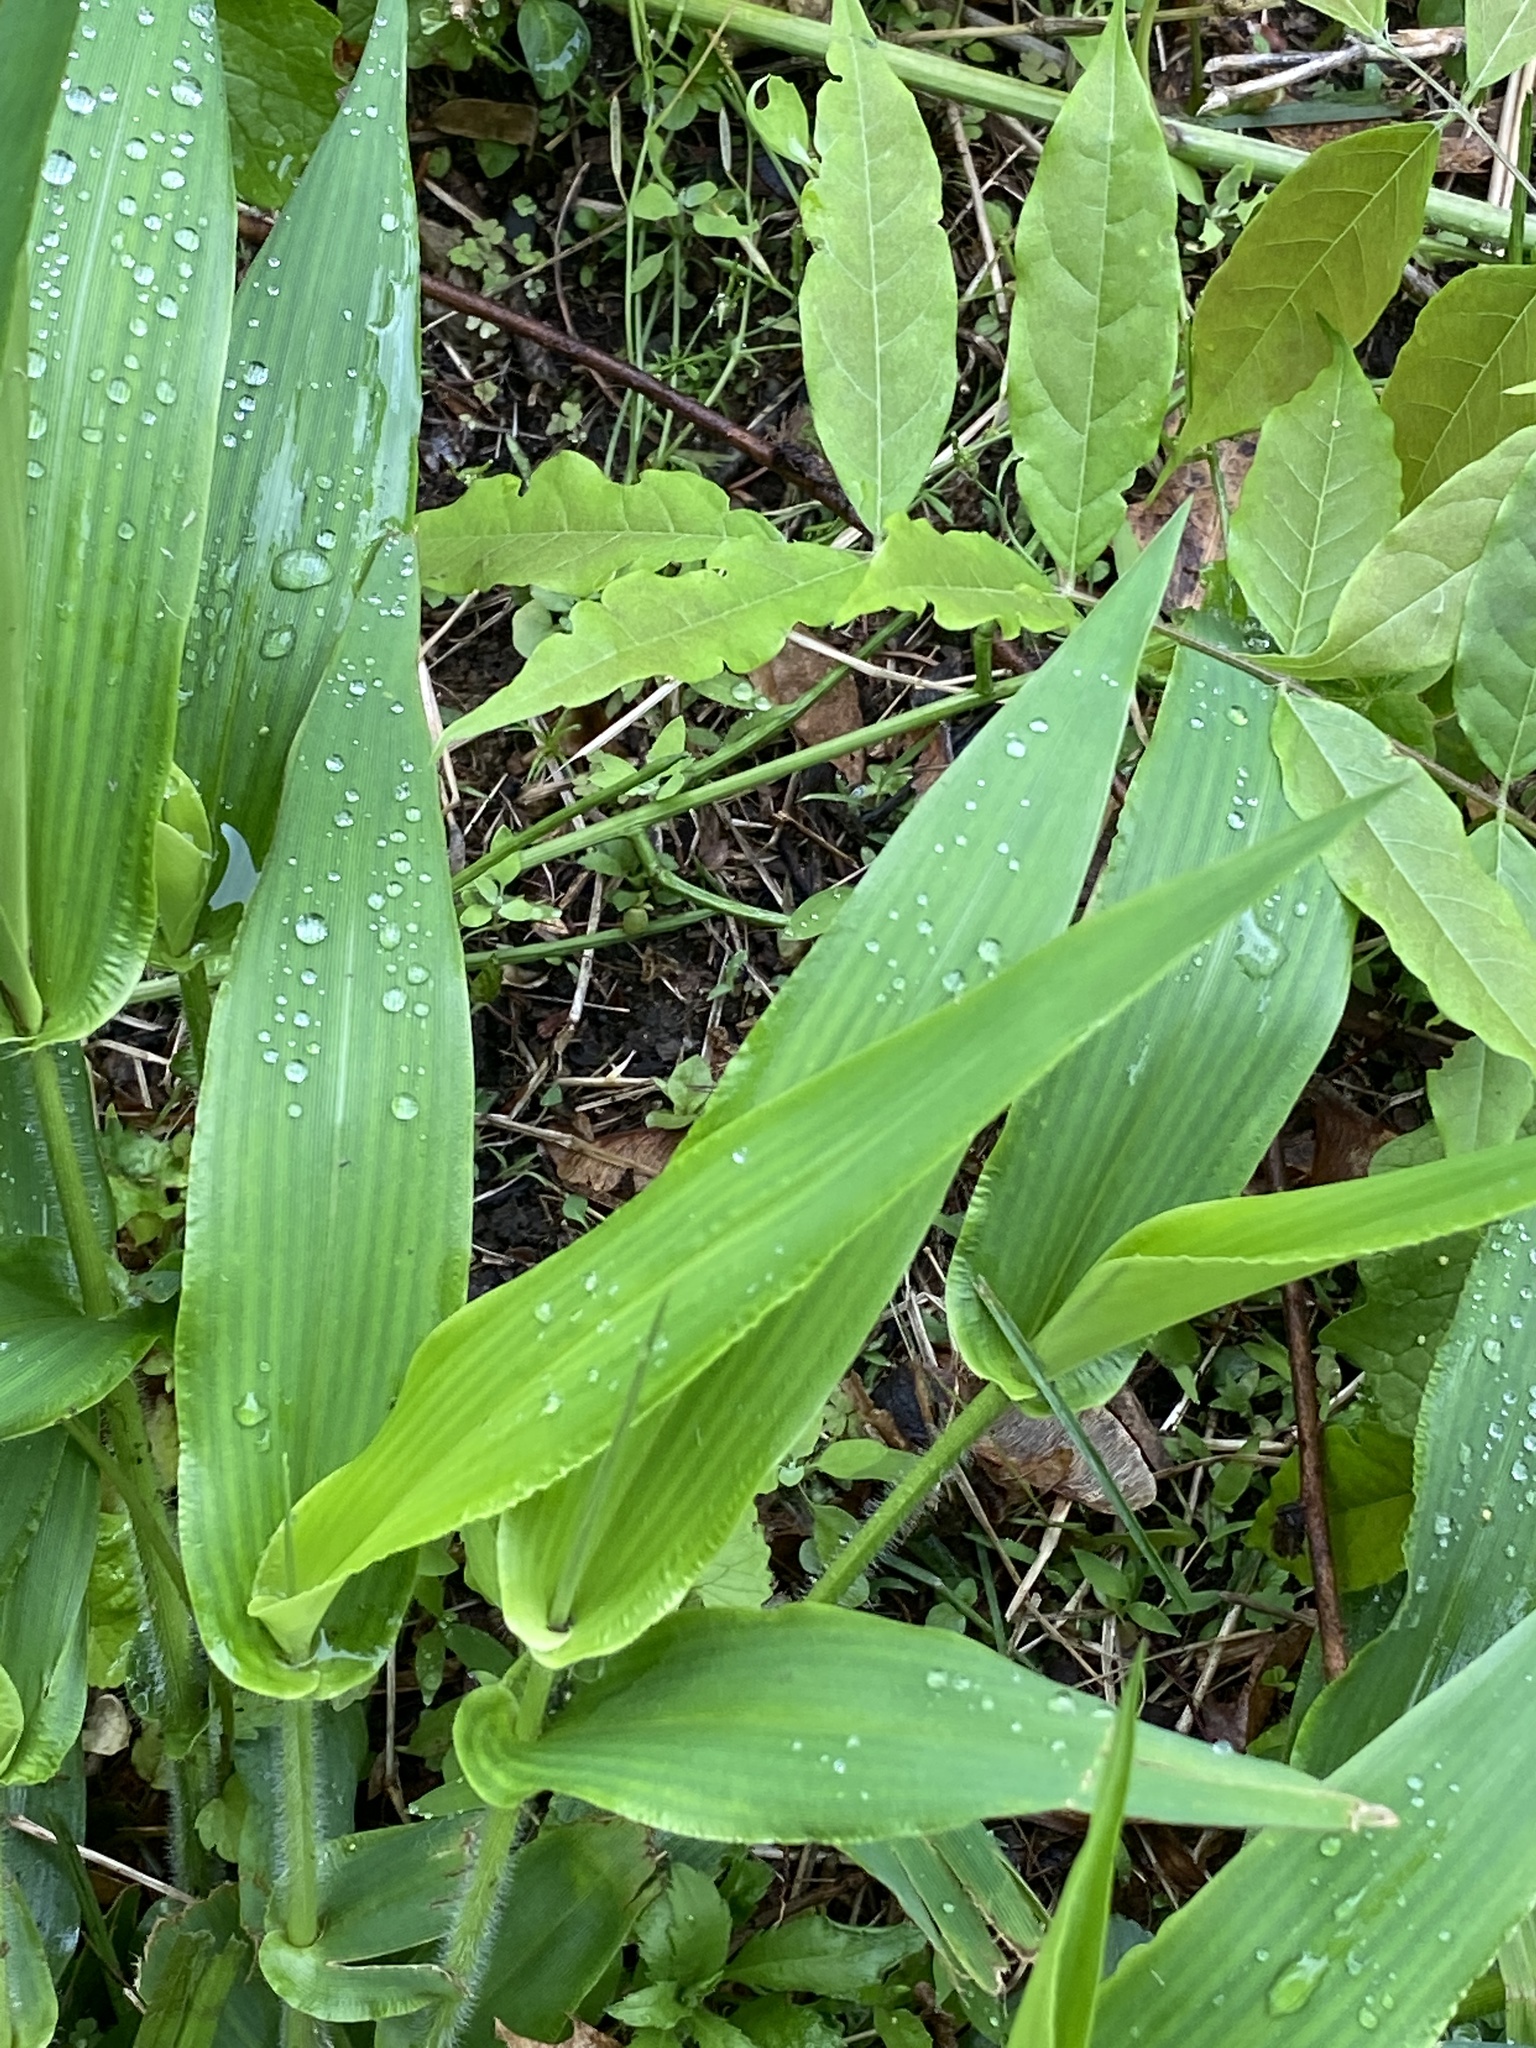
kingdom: Plantae
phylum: Tracheophyta
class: Liliopsida
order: Poales
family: Poaceae
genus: Dichanthelium
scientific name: Dichanthelium clandestinum
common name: Deer-tongue grass
